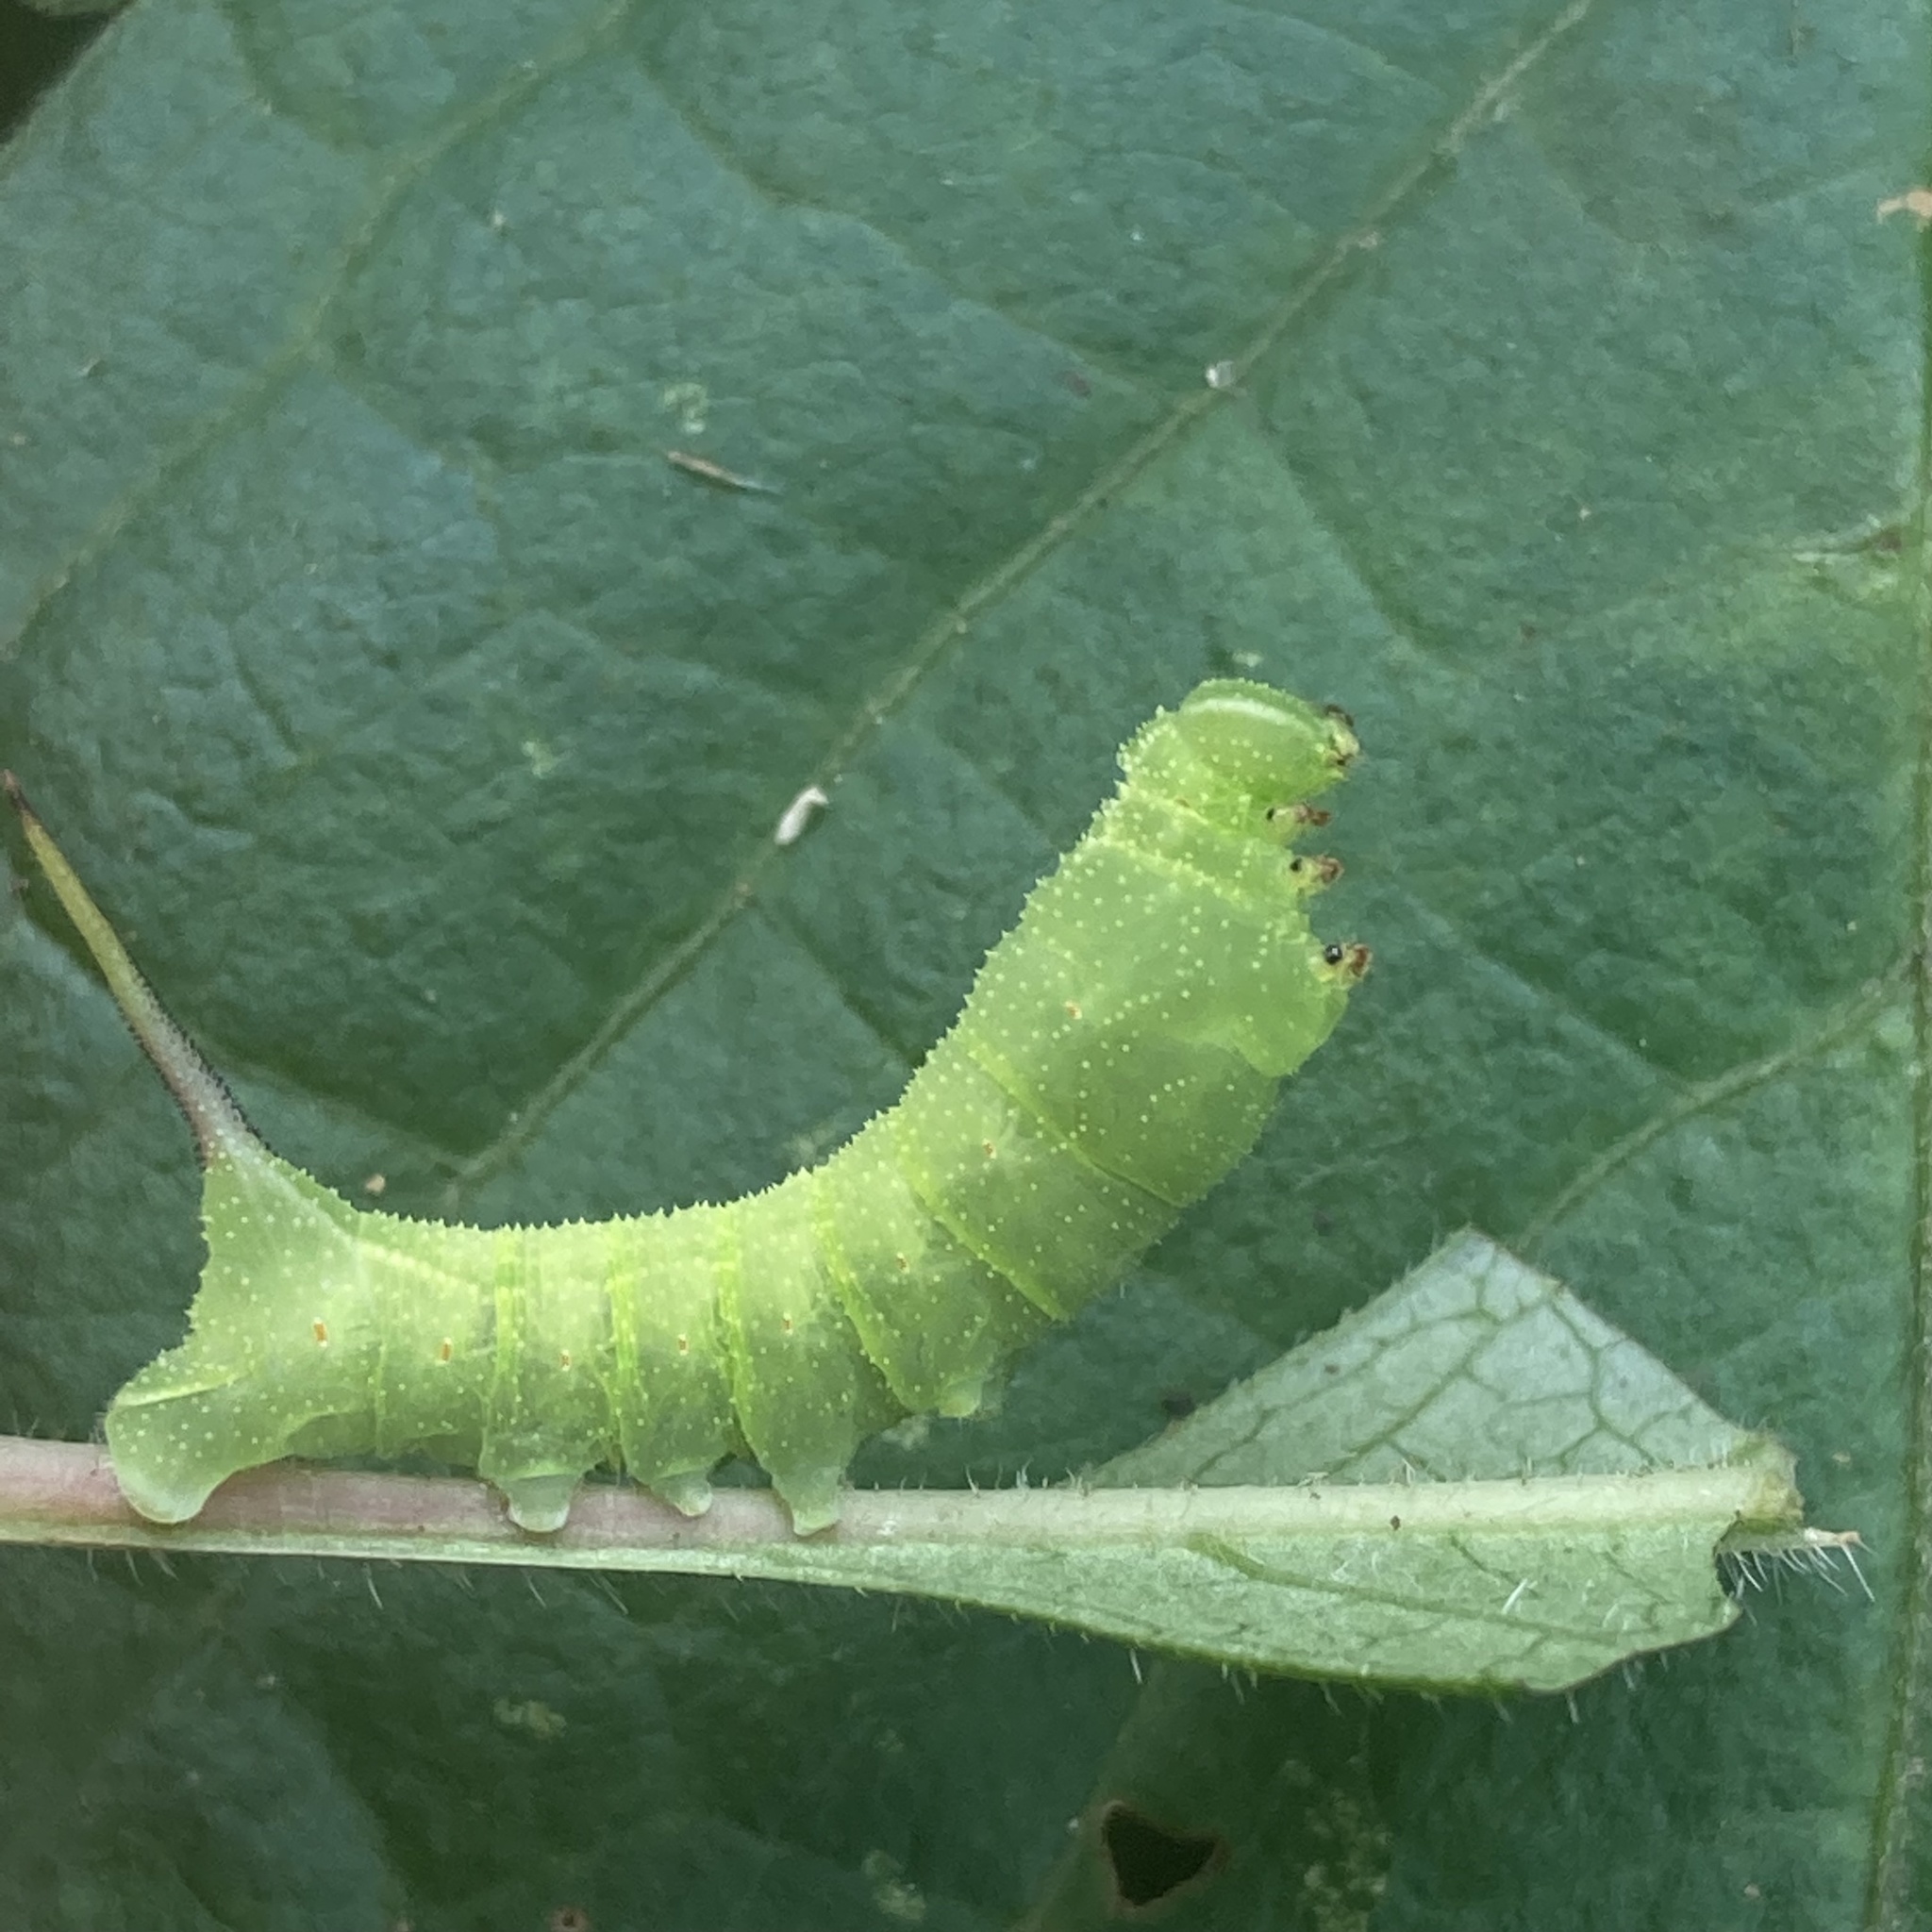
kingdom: Animalia
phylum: Arthropoda
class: Insecta
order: Lepidoptera
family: Sphingidae
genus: Darapsa
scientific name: Darapsa myron
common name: Hog sphinx
